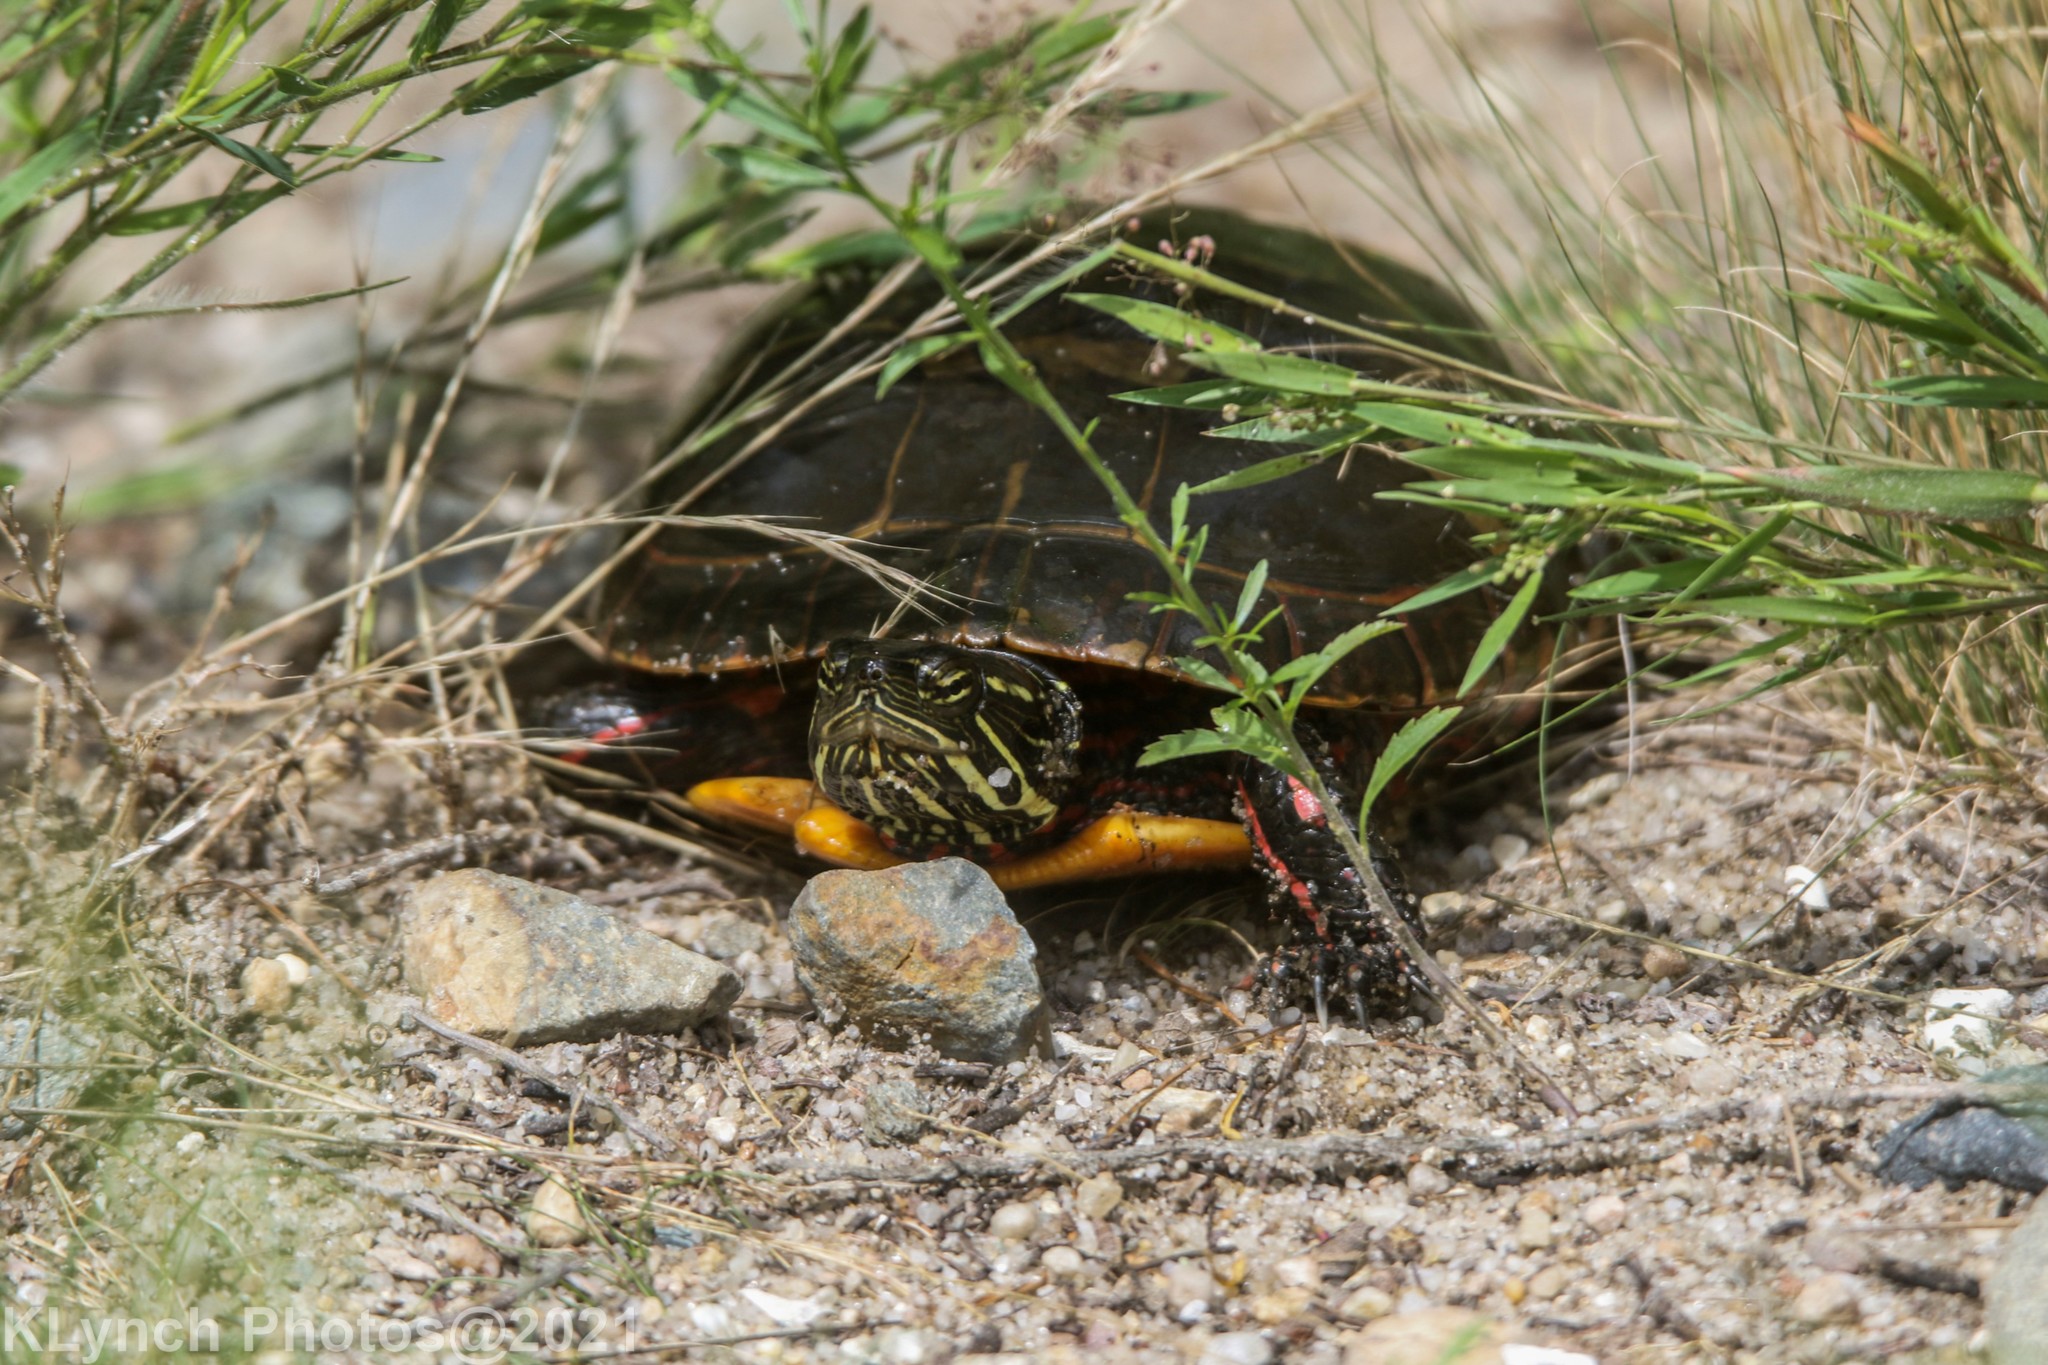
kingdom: Animalia
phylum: Chordata
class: Testudines
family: Emydidae
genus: Chrysemys
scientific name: Chrysemys picta
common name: Painted turtle
